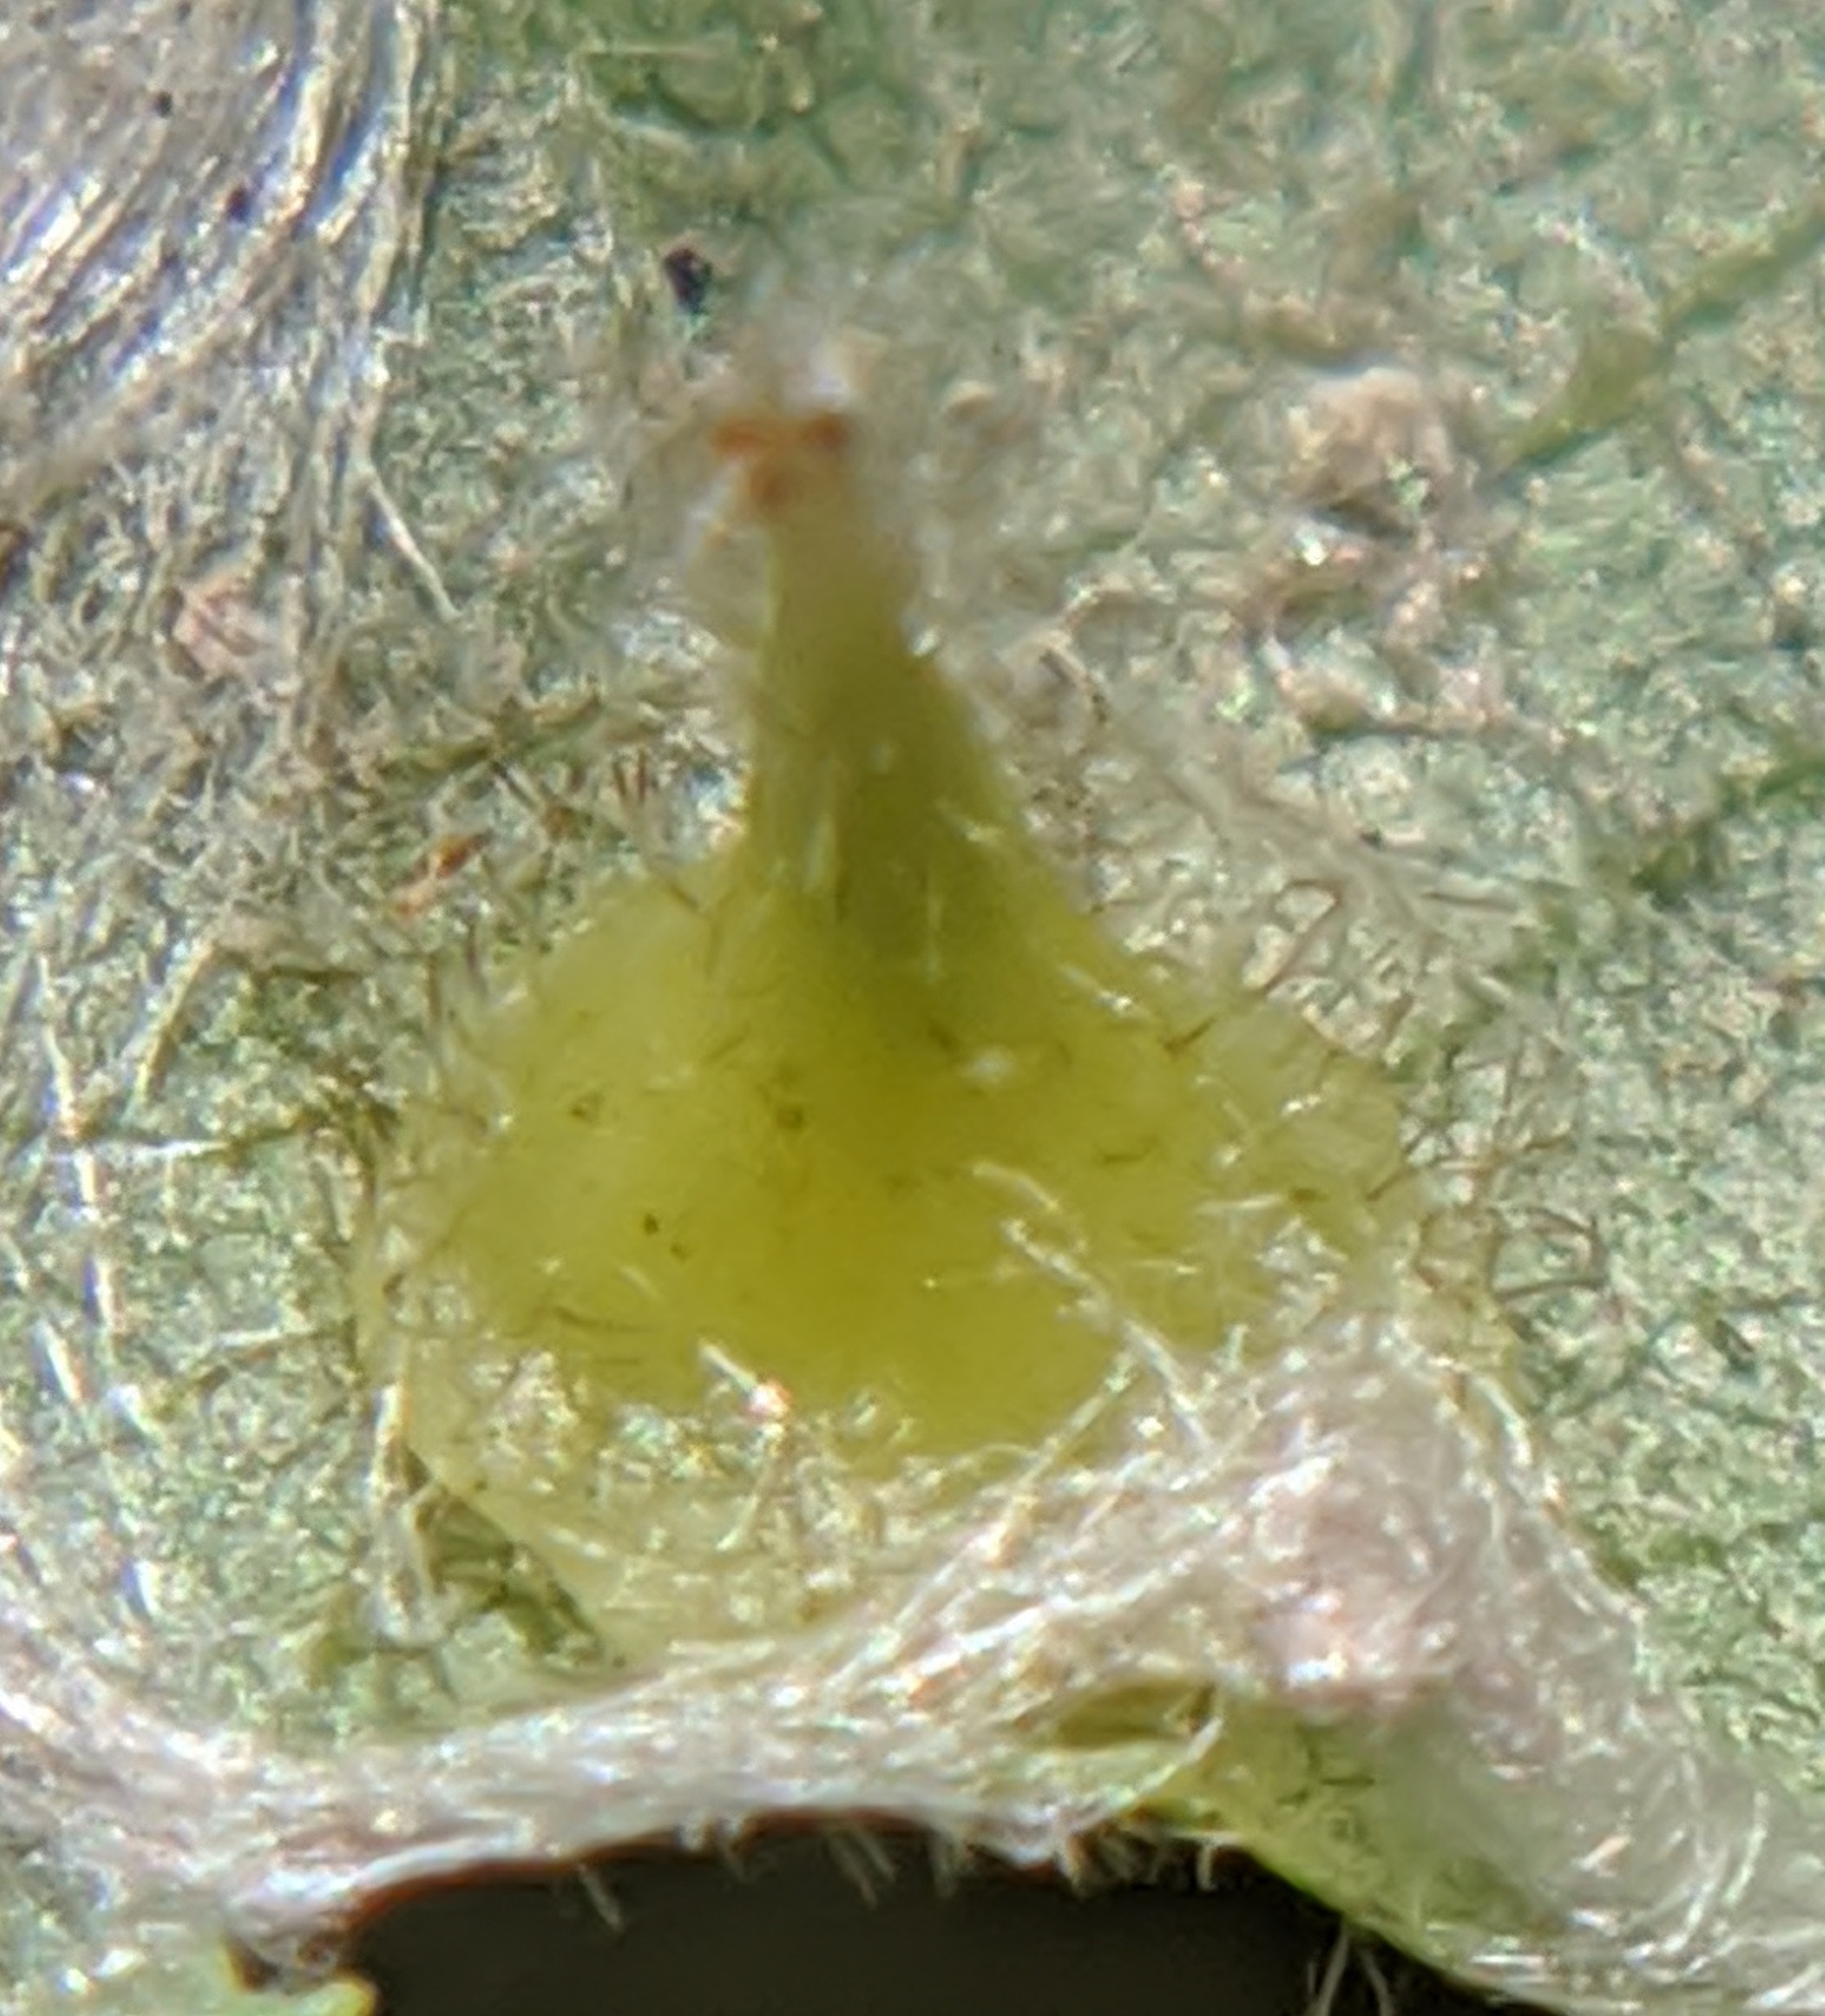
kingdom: Animalia
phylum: Arthropoda
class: Insecta
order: Diptera
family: Cecidomyiidae
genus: Caryomyia
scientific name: Caryomyia marginata
